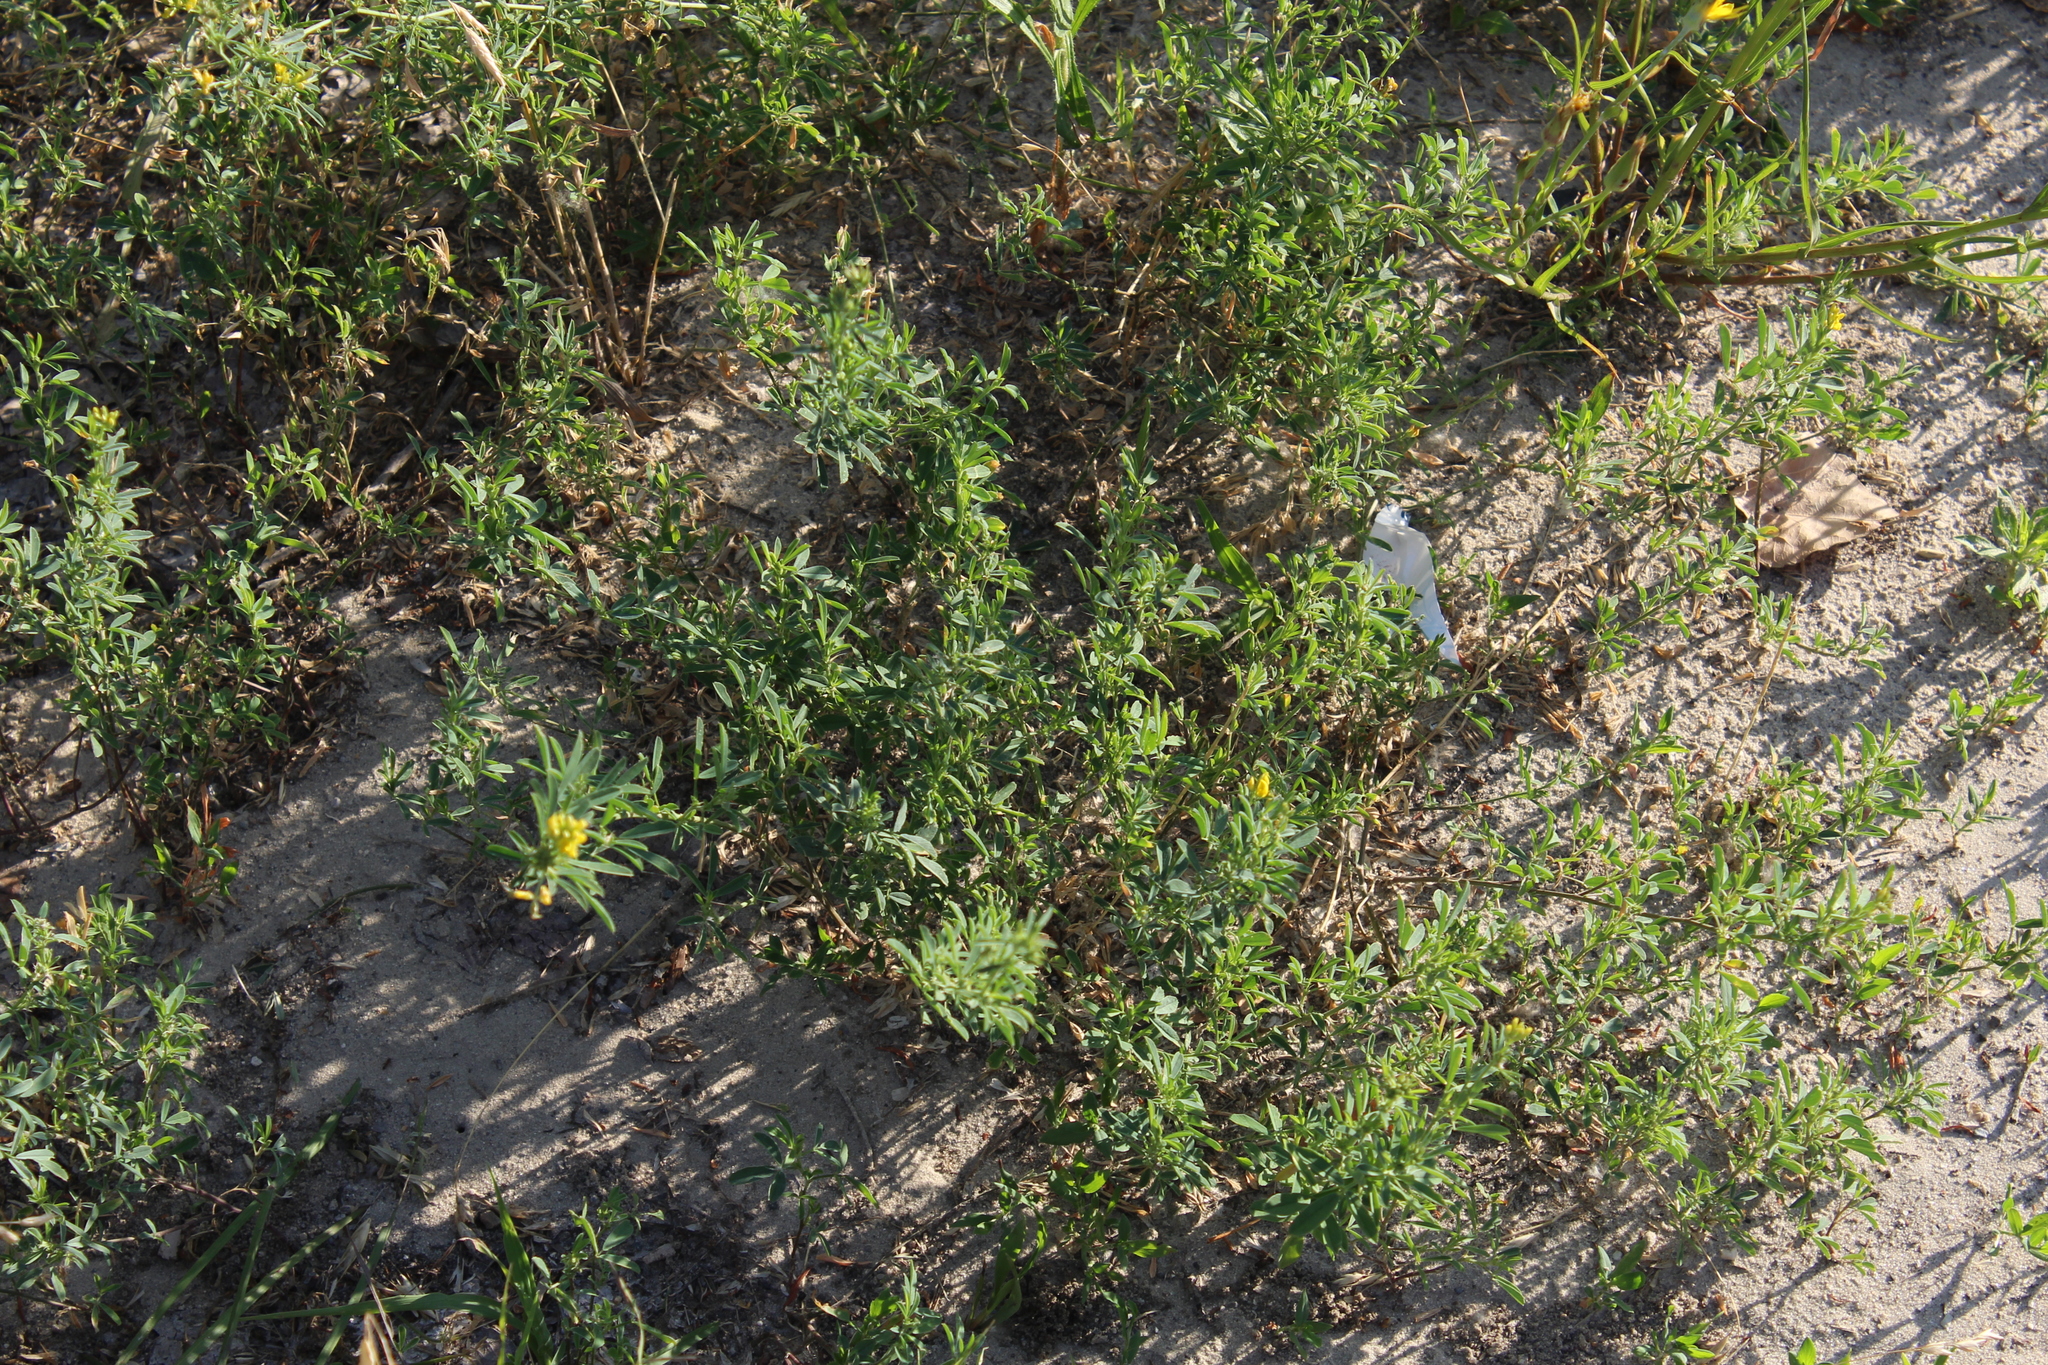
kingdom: Plantae
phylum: Tracheophyta
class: Magnoliopsida
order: Fabales
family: Fabaceae
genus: Medicago
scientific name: Medicago falcata
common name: Sickle medick
